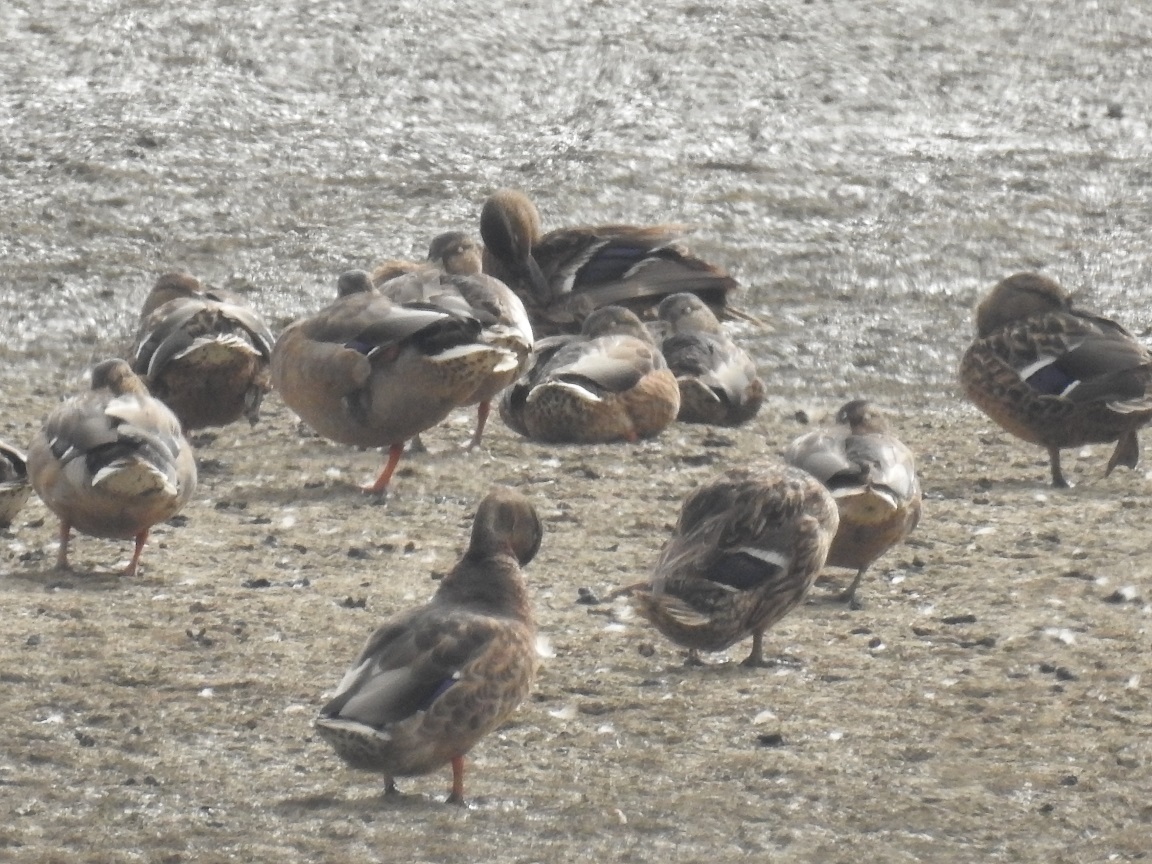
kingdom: Animalia
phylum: Chordata
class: Aves
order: Anseriformes
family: Anatidae
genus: Anas
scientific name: Anas platyrhynchos
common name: Mallard
